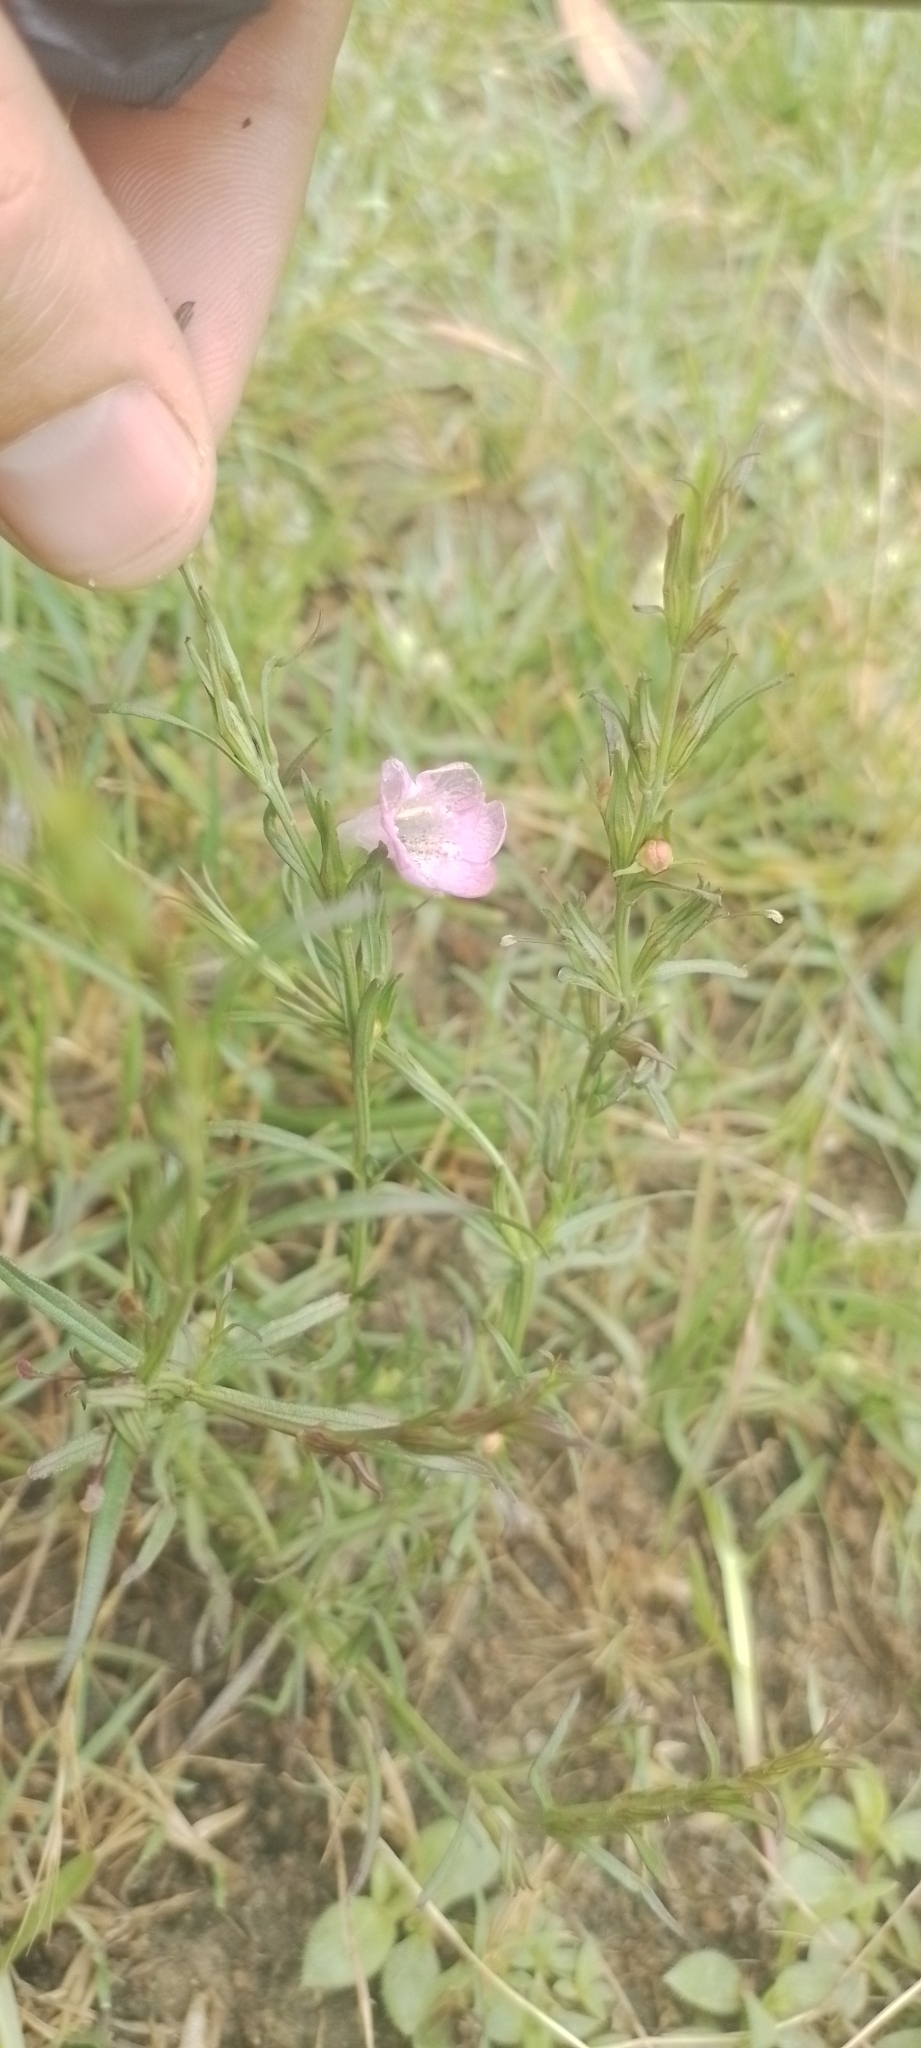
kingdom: Plantae
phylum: Tracheophyta
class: Magnoliopsida
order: Lamiales
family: Orobanchaceae
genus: Agalinis
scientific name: Agalinis communis
